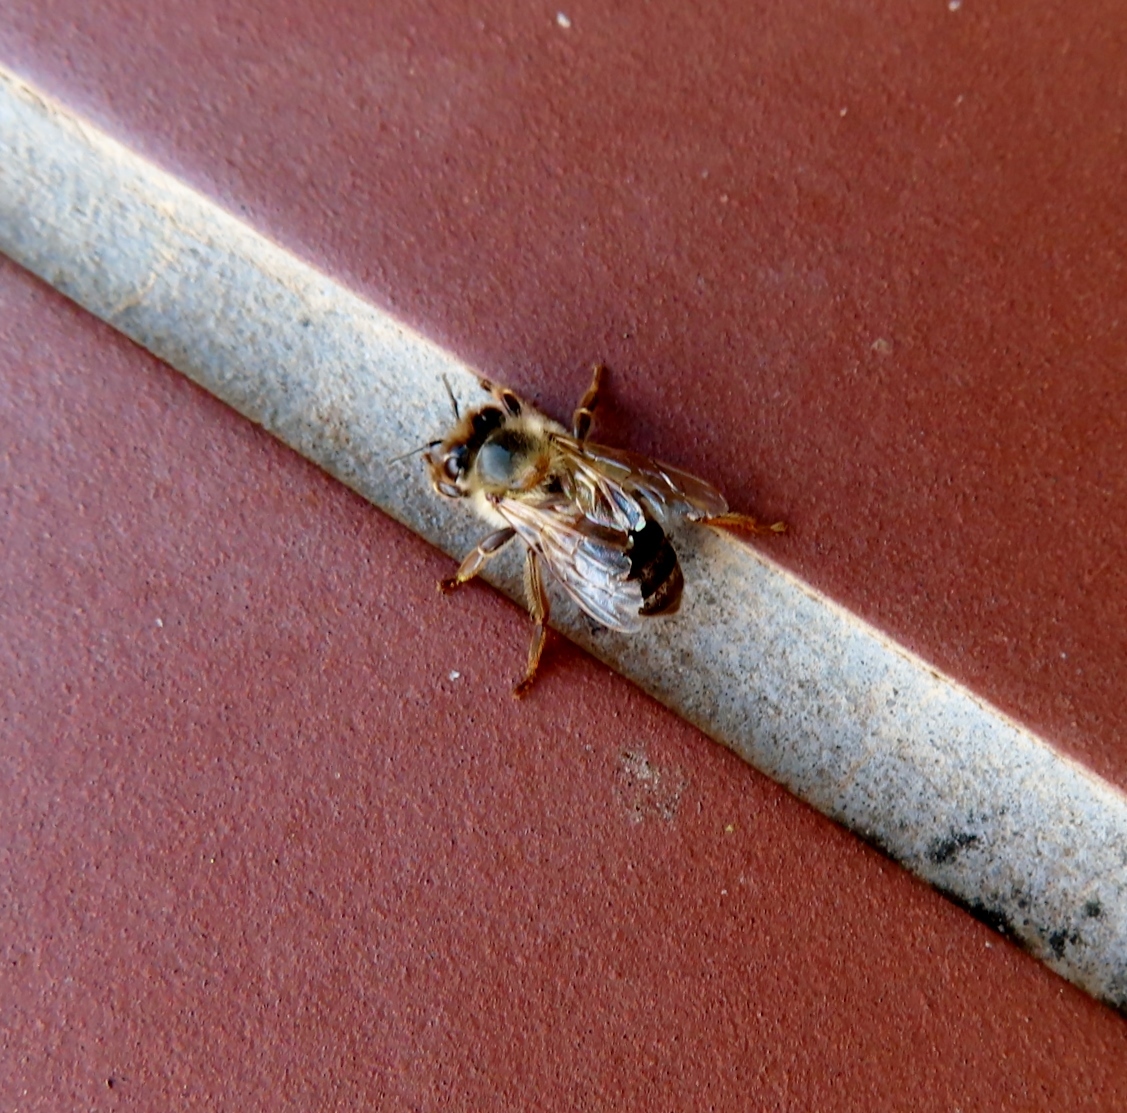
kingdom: Animalia
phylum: Arthropoda
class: Insecta
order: Hymenoptera
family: Apidae
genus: Apis
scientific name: Apis mellifera
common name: Honey bee
